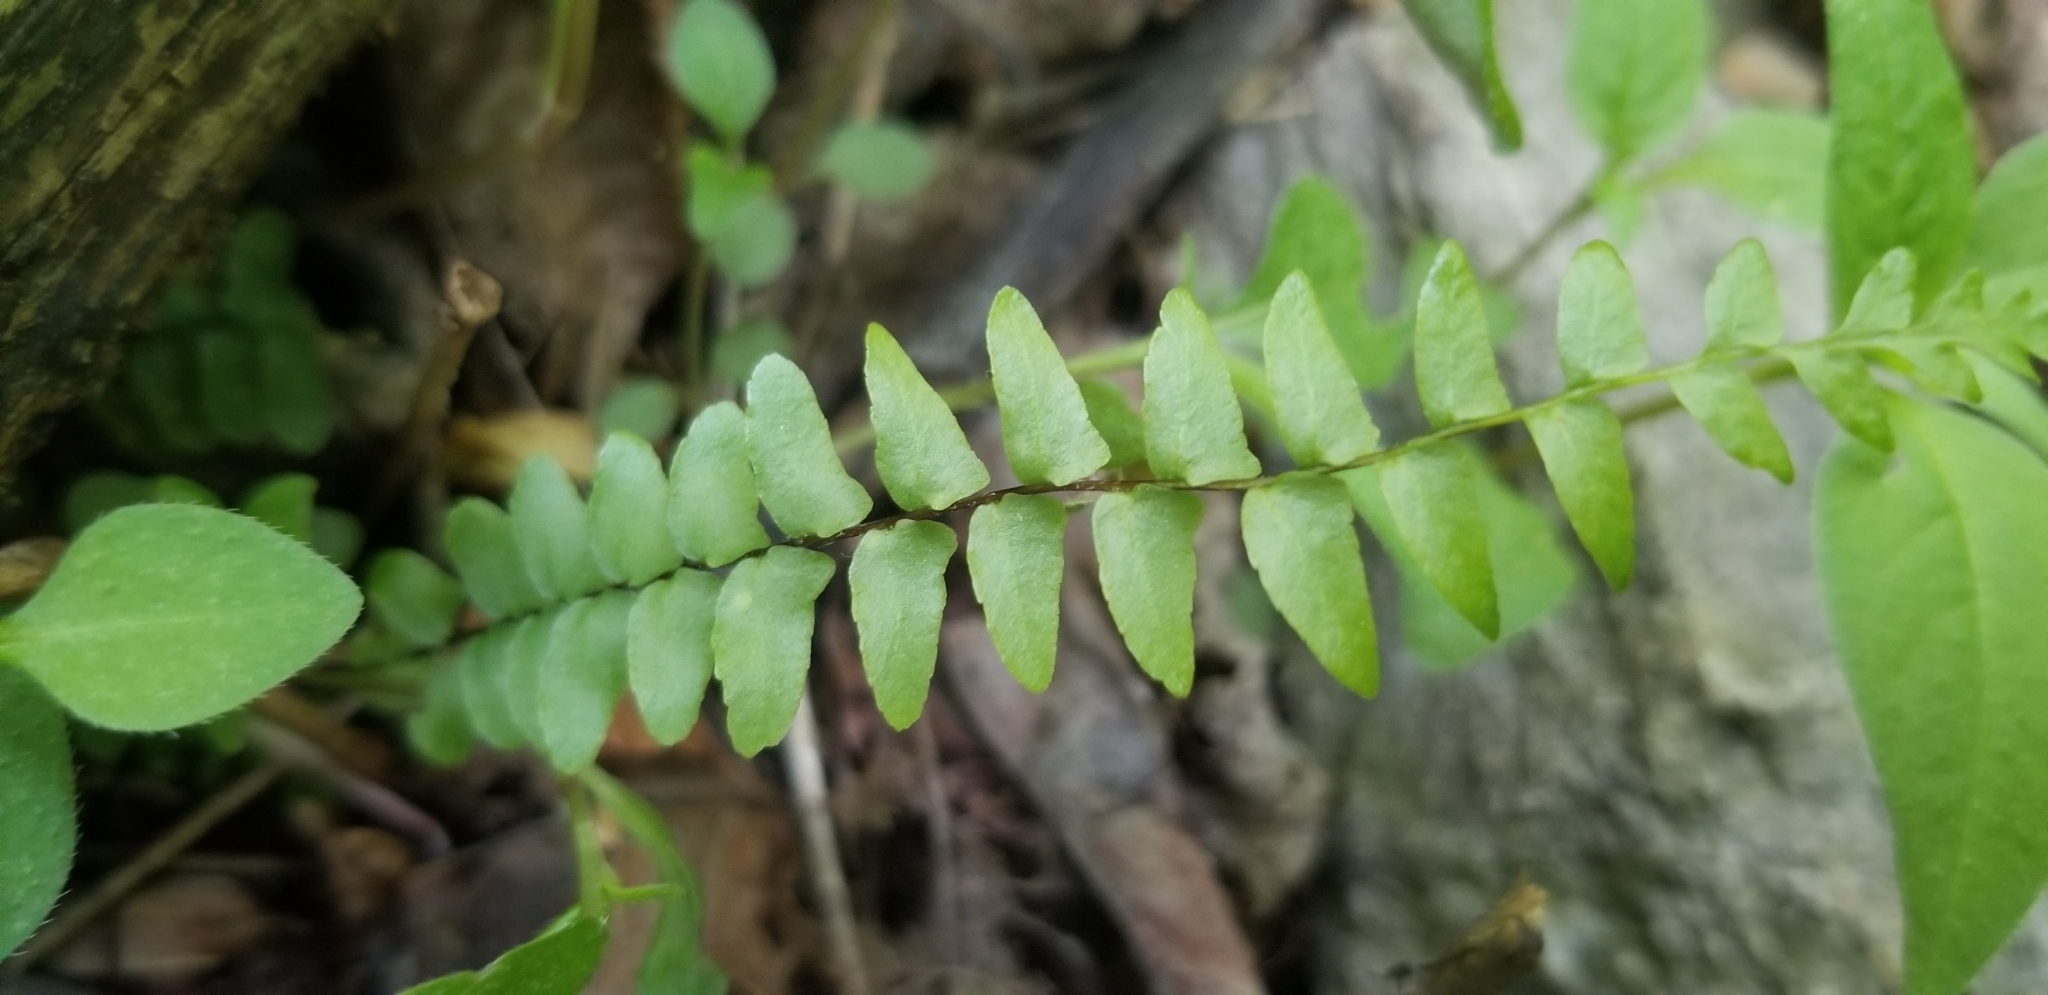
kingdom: Plantae
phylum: Tracheophyta
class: Polypodiopsida
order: Polypodiales
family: Aspleniaceae
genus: Asplenium
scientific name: Asplenium platyneuron
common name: Ebony spleenwort
